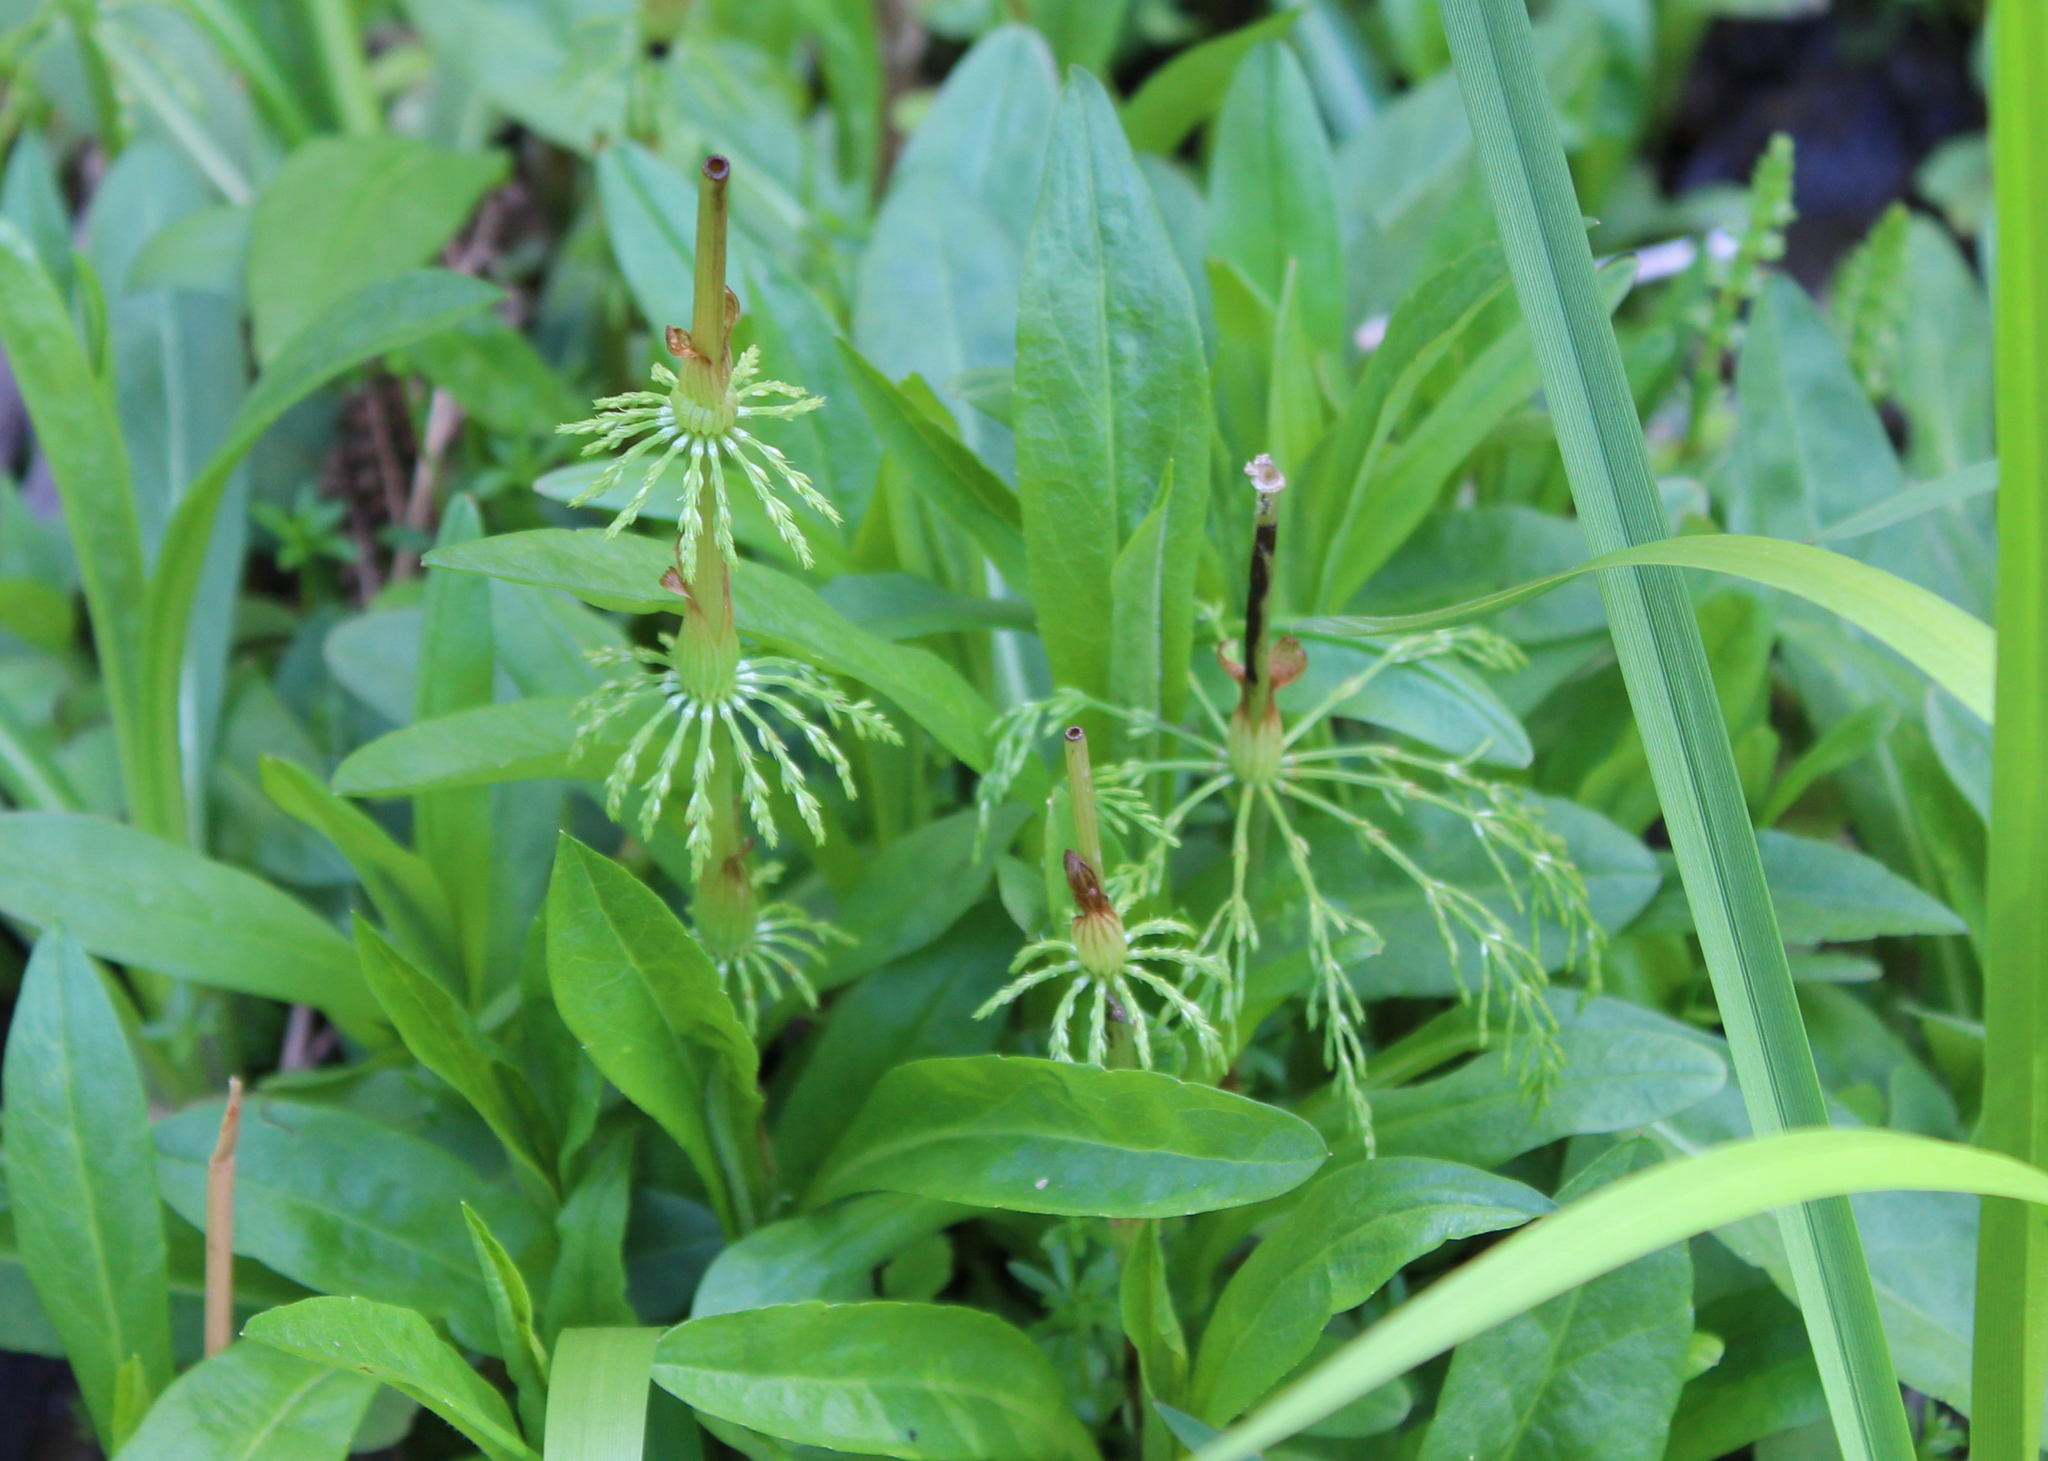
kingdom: Plantae
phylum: Tracheophyta
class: Polypodiopsida
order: Equisetales
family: Equisetaceae
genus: Equisetum
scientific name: Equisetum sylvaticum
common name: Wood horsetail
